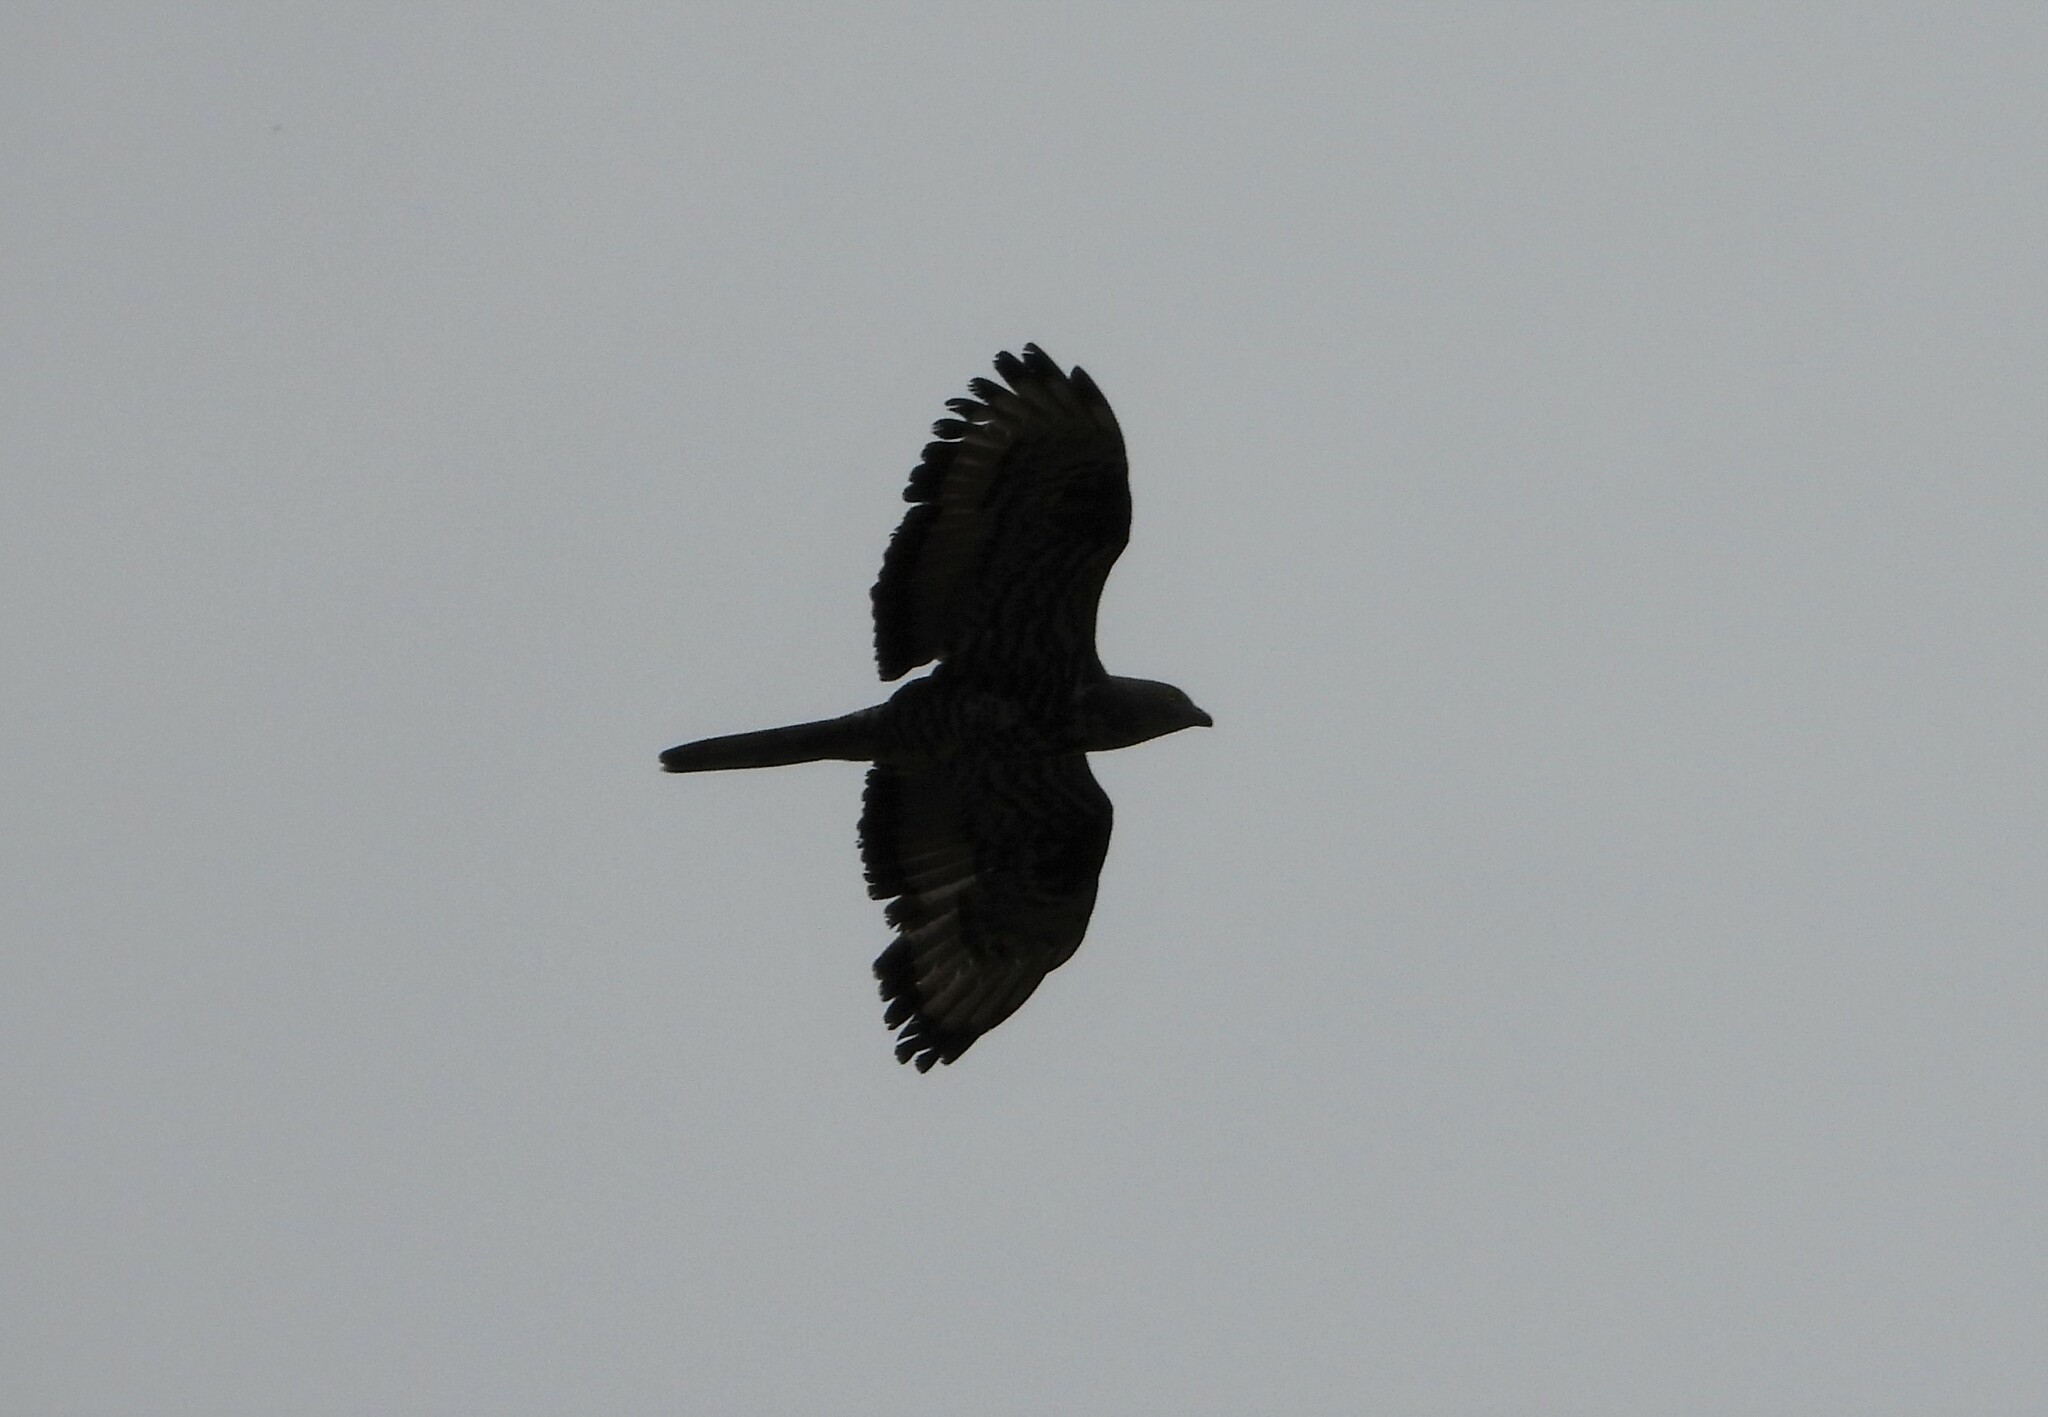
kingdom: Animalia
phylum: Chordata
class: Aves
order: Accipitriformes
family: Accipitridae
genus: Pernis
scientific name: Pernis apivorus
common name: European honey buzzard
